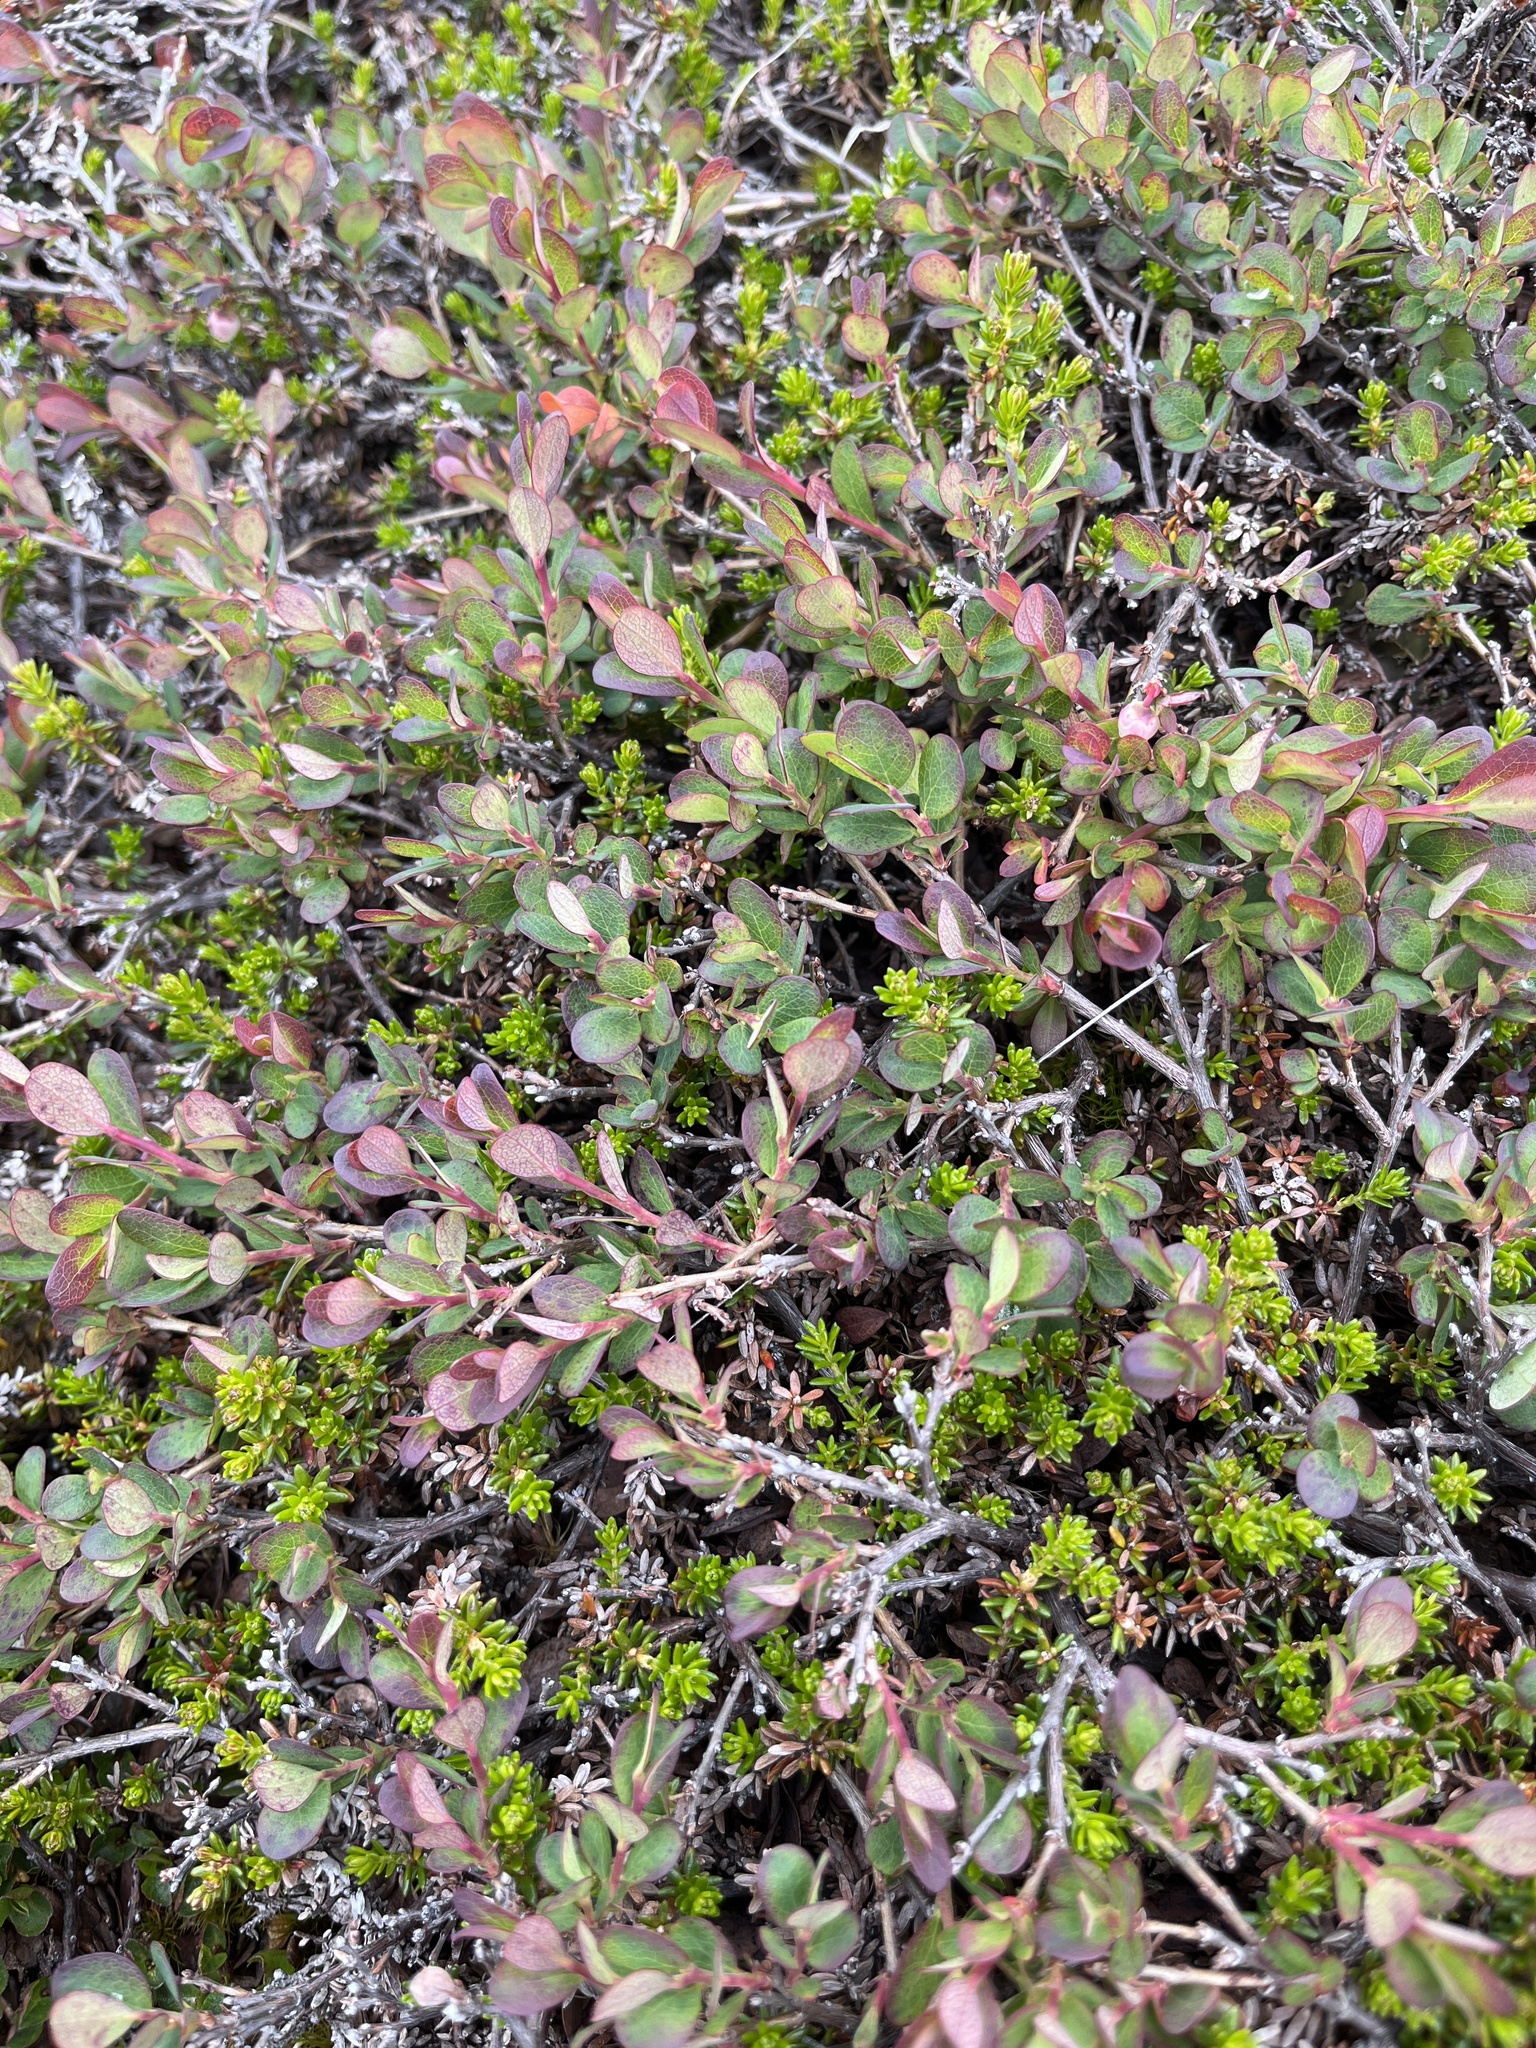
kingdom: Plantae
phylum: Tracheophyta
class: Magnoliopsida
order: Ericales
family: Ericaceae
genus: Vaccinium
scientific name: Vaccinium uliginosum
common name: Bog bilberry
